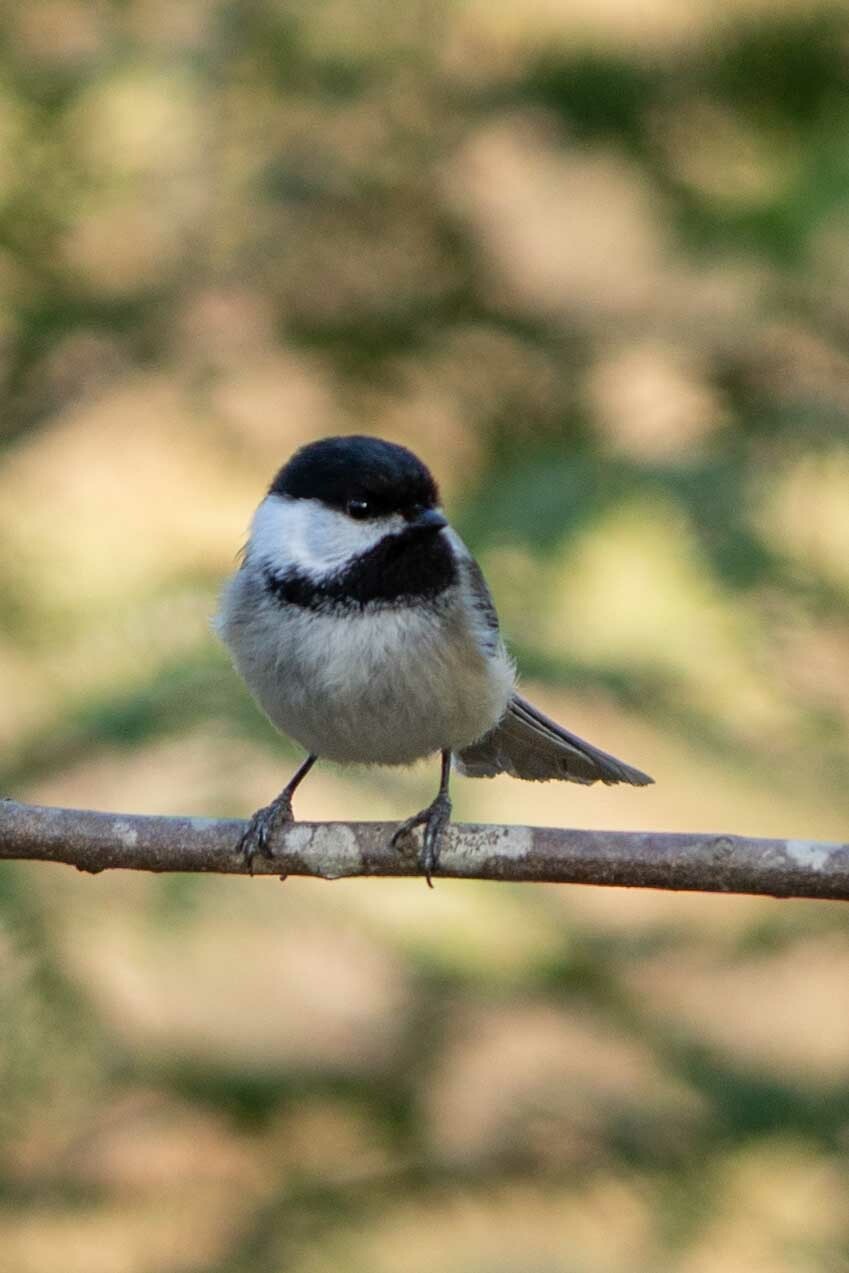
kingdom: Animalia
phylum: Chordata
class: Aves
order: Passeriformes
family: Paridae
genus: Poecile
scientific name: Poecile atricapillus
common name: Black-capped chickadee
